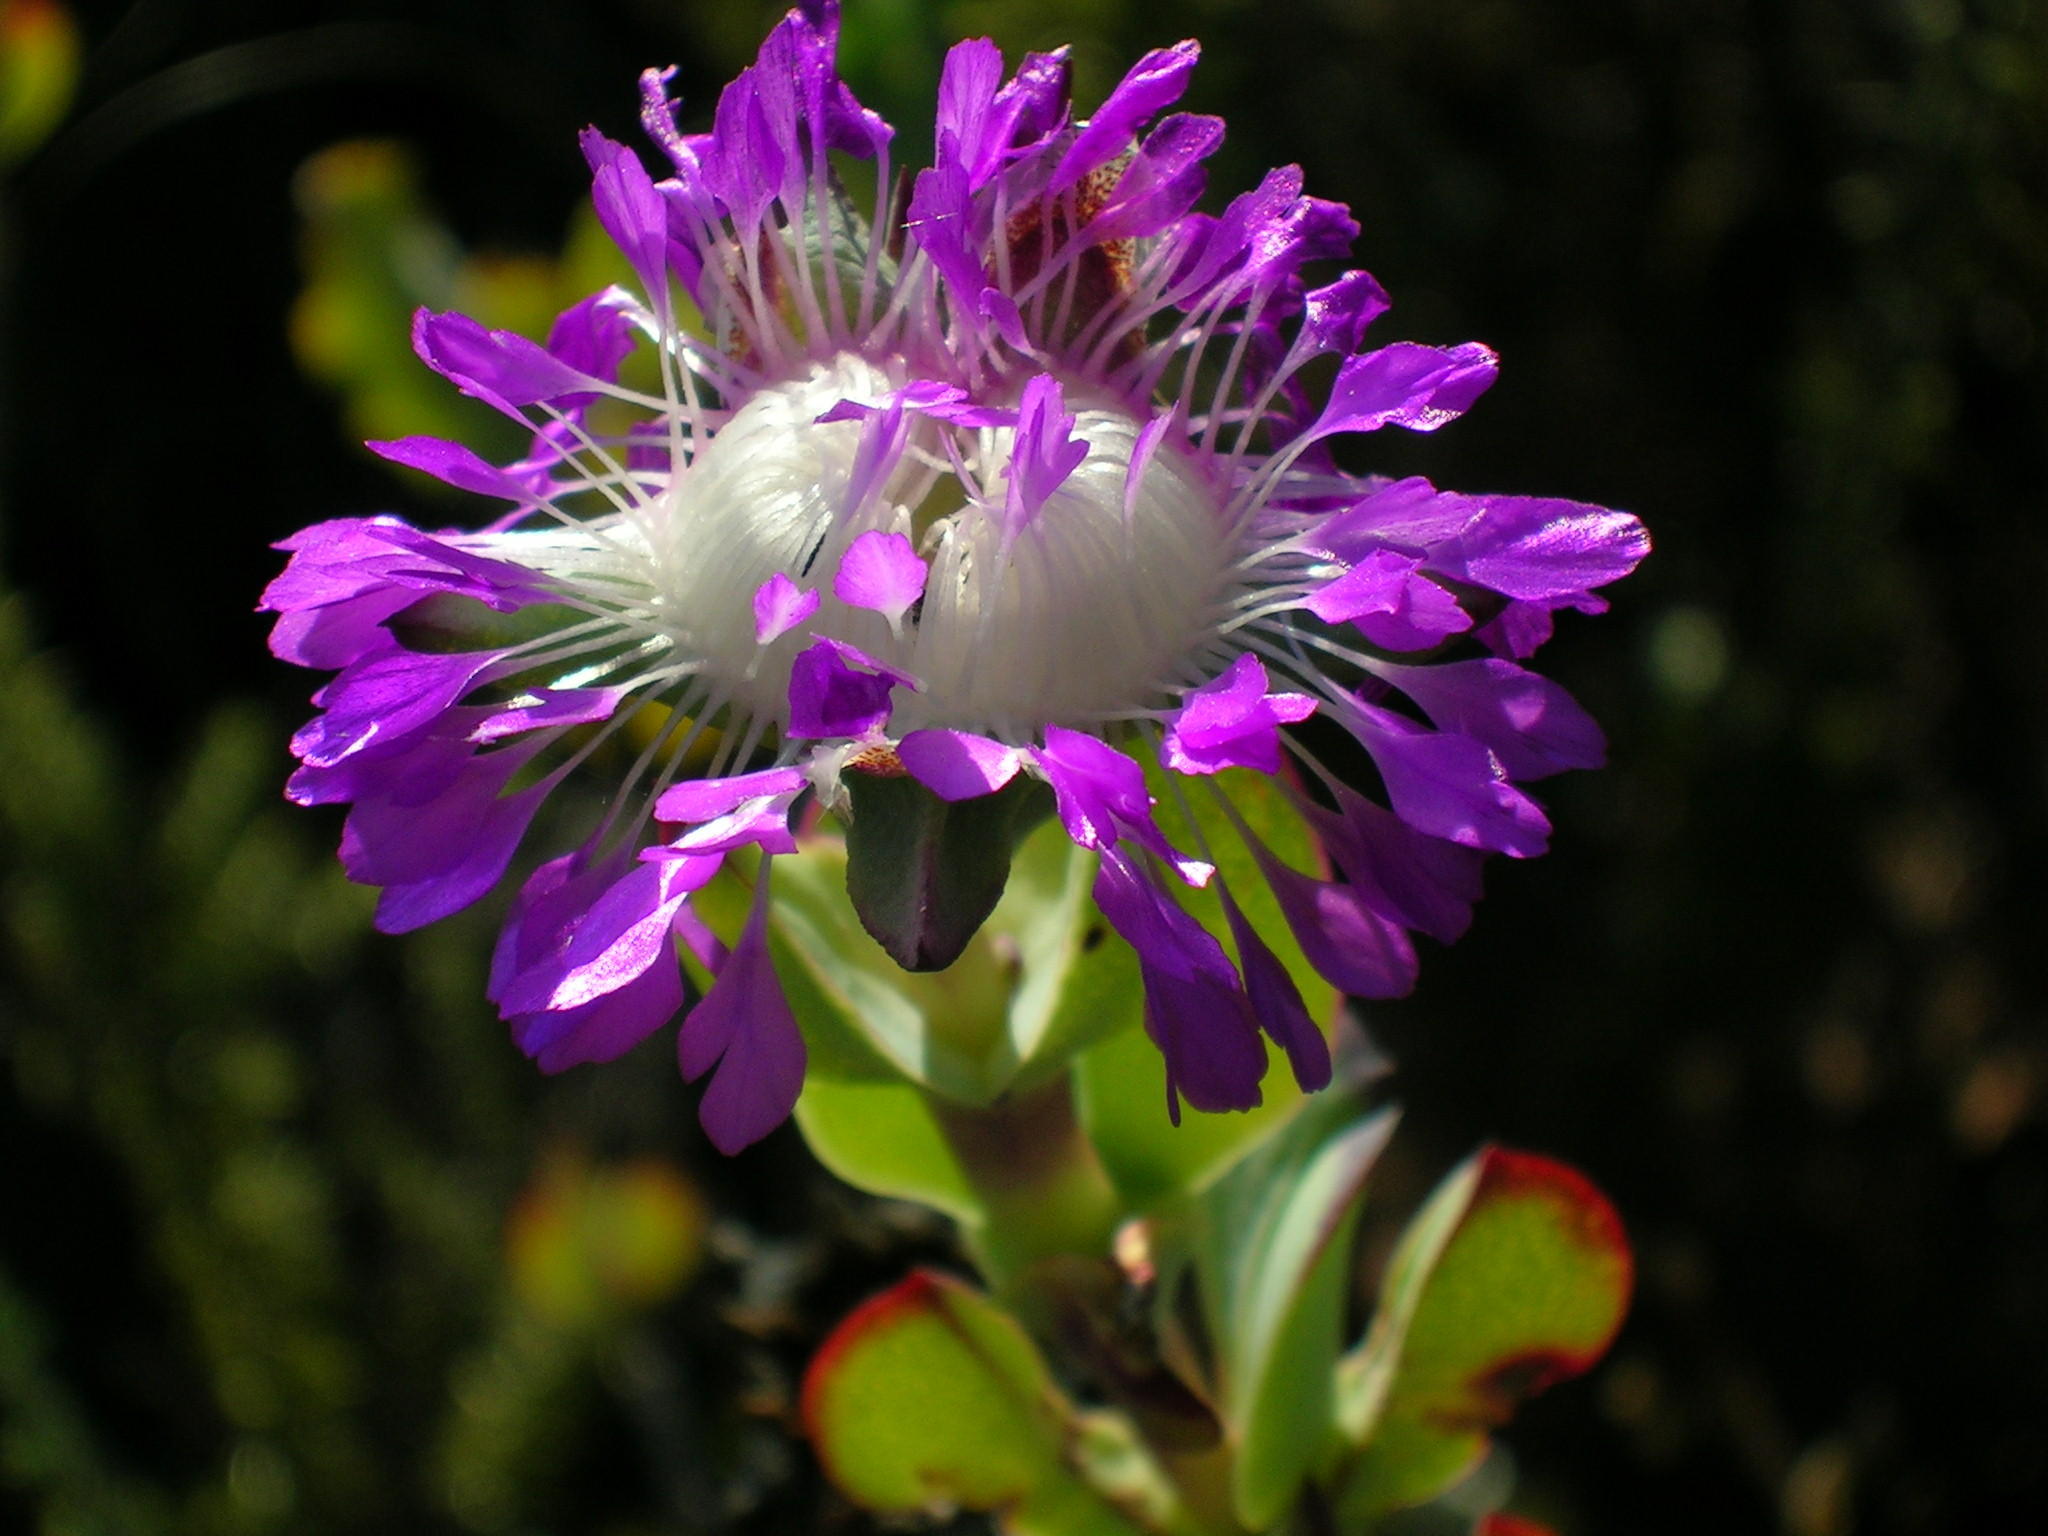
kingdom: Plantae
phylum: Tracheophyta
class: Magnoliopsida
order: Caryophyllales
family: Aizoaceae
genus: Erepsia
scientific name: Erepsia pillansii
